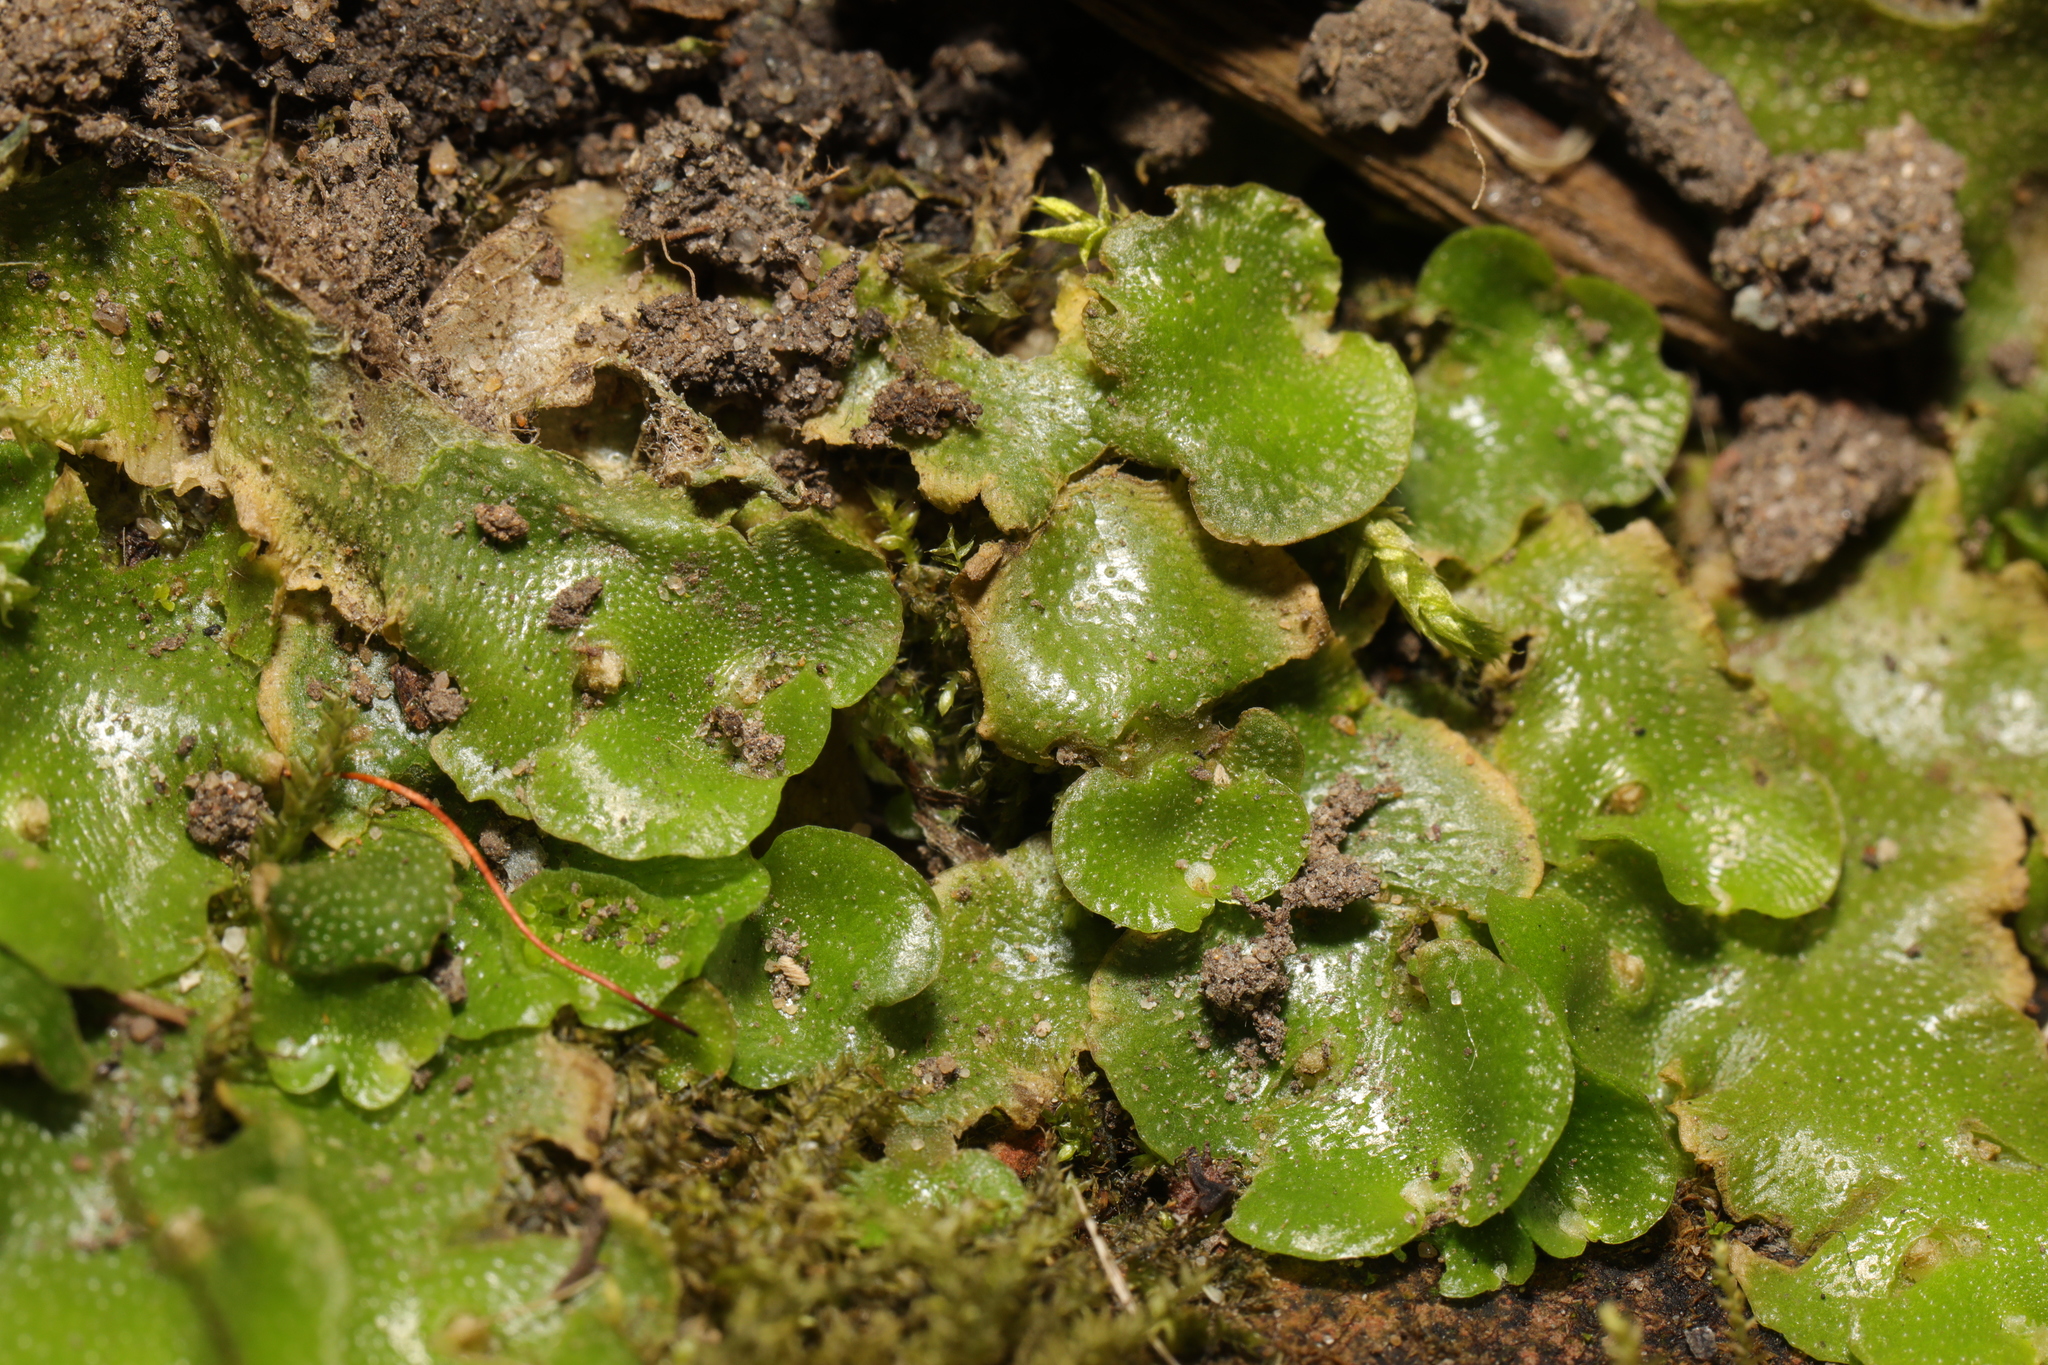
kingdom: Plantae
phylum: Marchantiophyta
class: Marchantiopsida
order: Lunulariales
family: Lunulariaceae
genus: Lunularia
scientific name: Lunularia cruciata
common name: Crescent-cup liverwort
